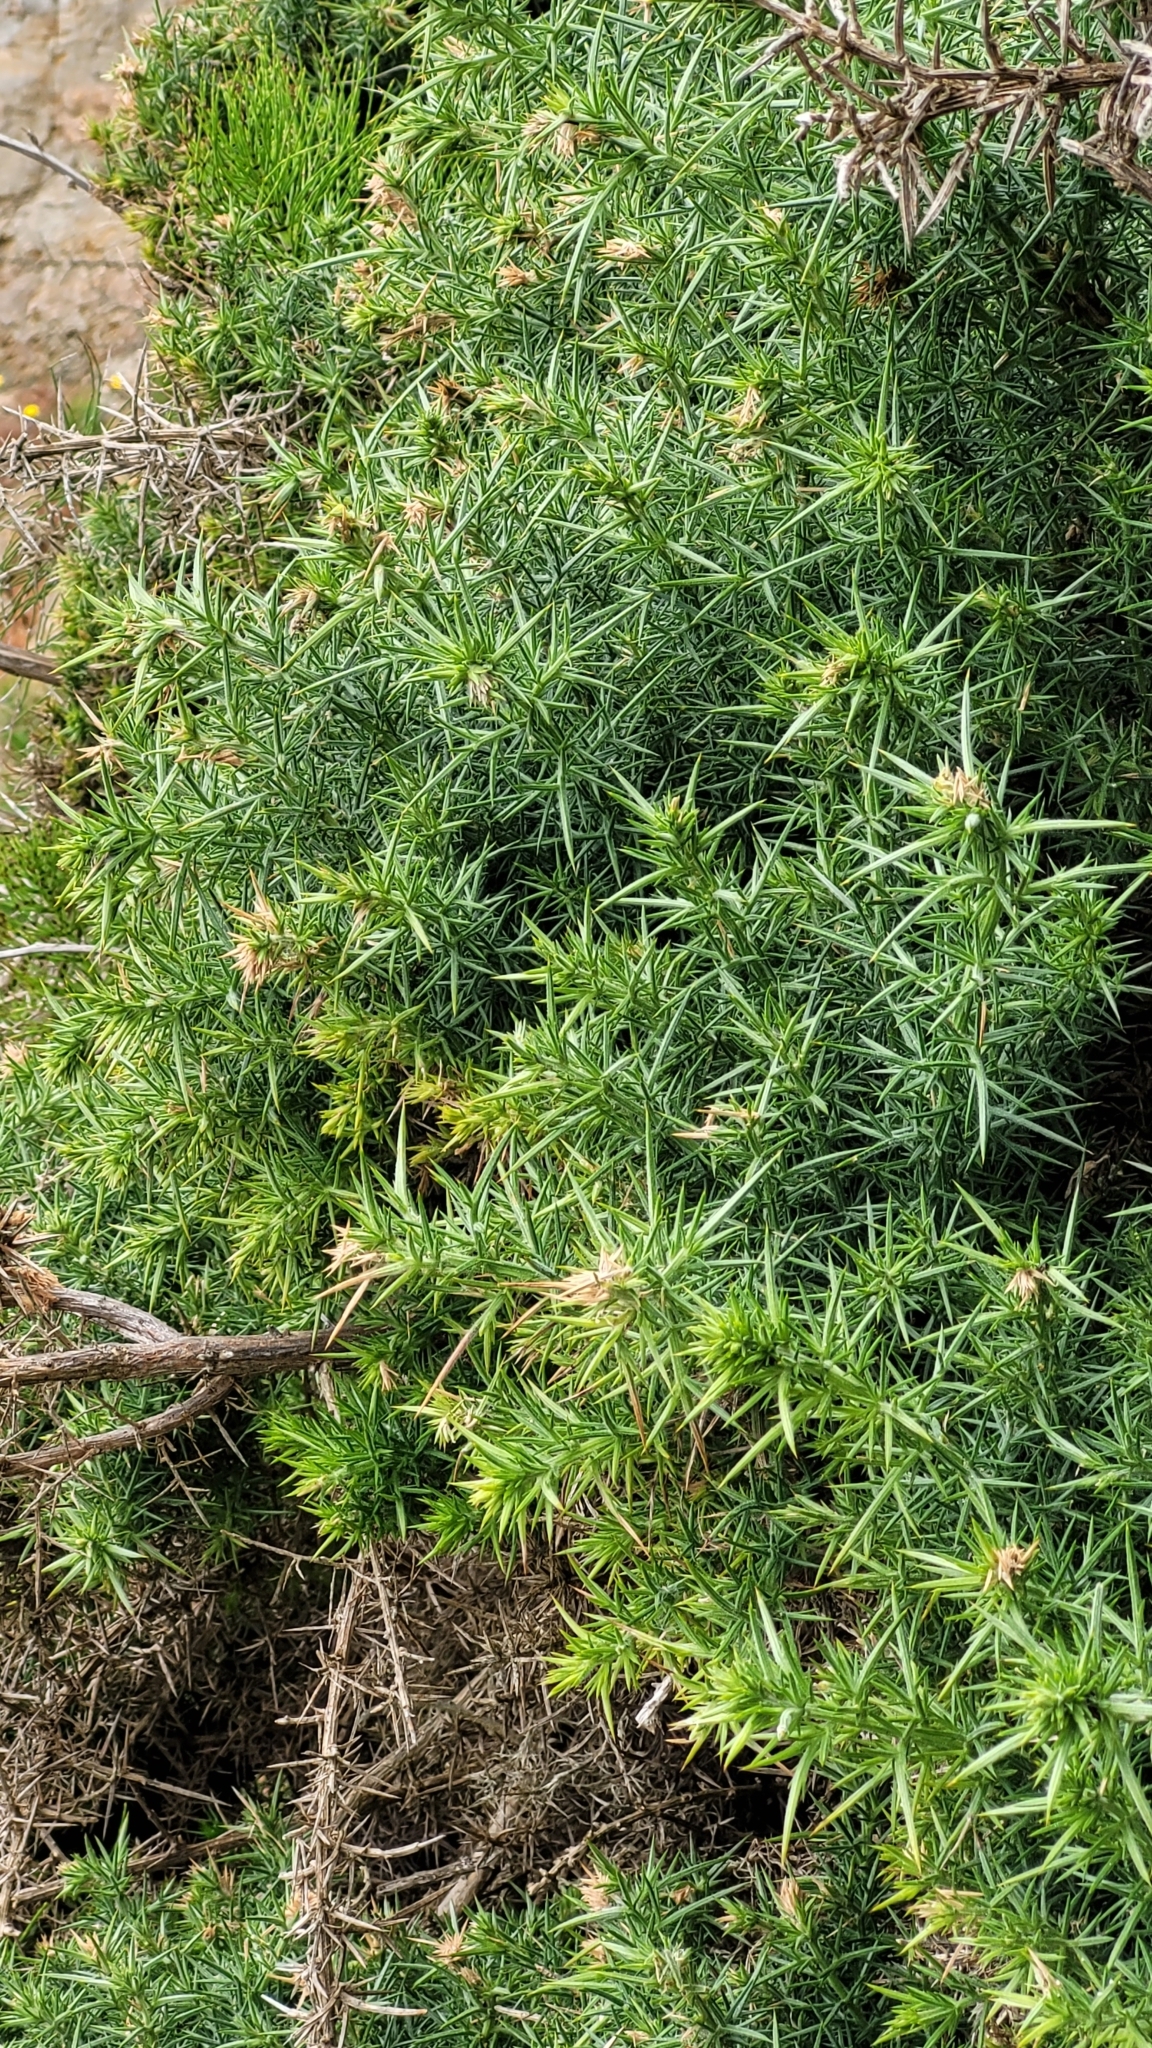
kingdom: Plantae
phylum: Tracheophyta
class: Magnoliopsida
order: Fabales
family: Fabaceae
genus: Ulex
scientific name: Ulex europaeus
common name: Common gorse
